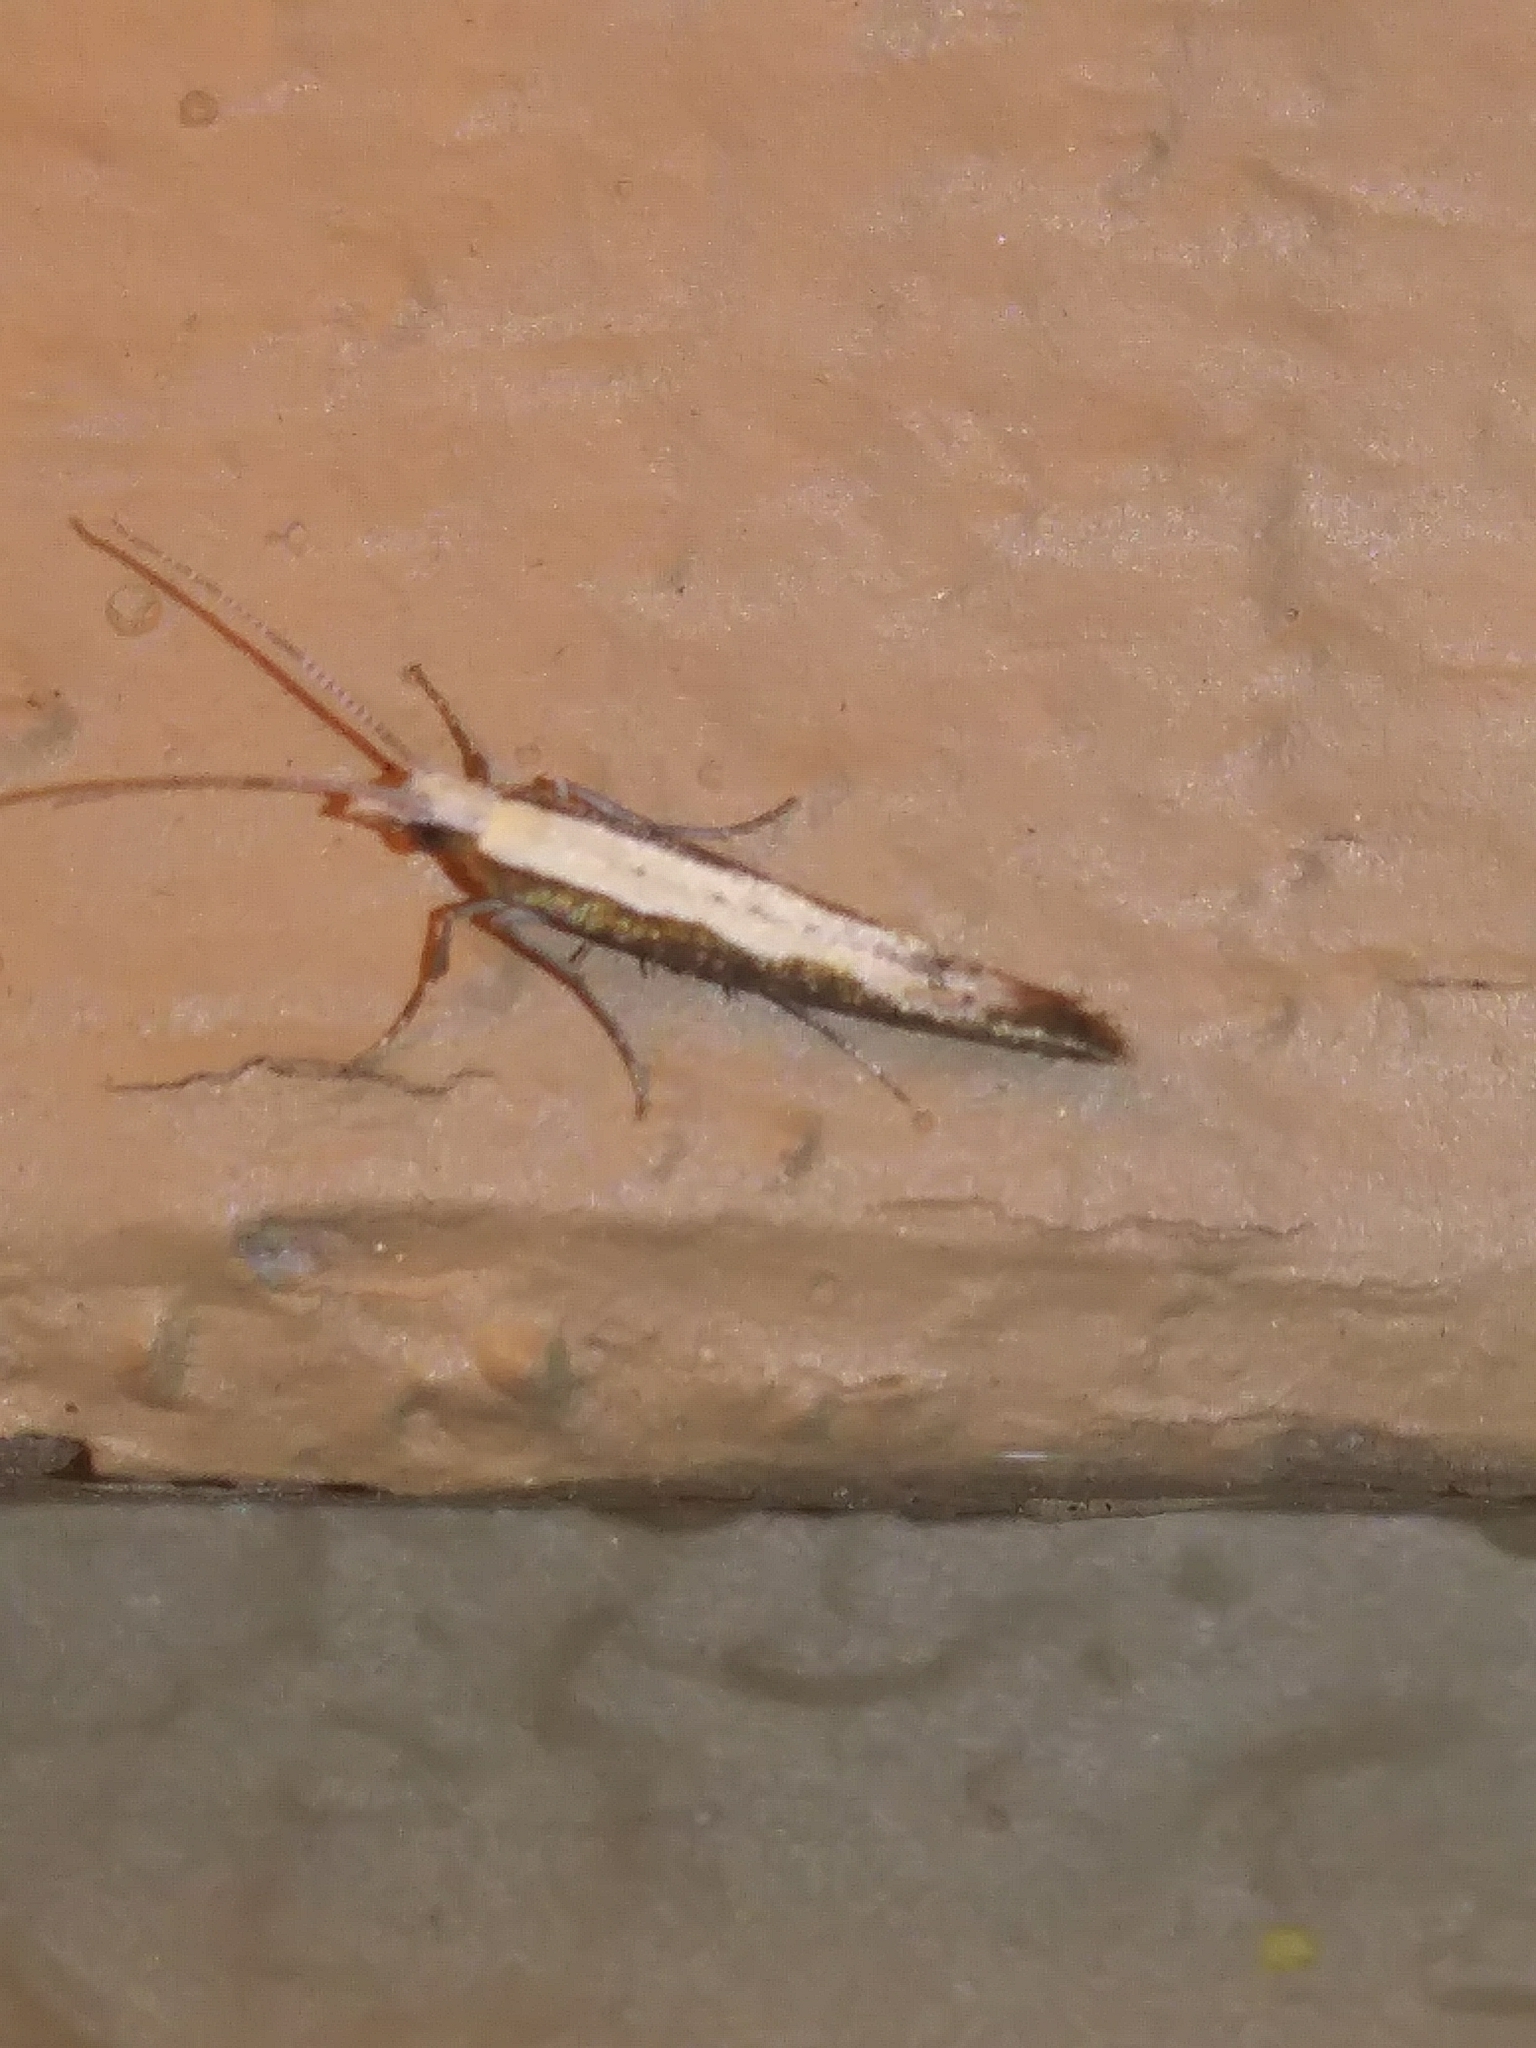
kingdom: Animalia
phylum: Arthropoda
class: Insecta
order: Lepidoptera
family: Plutellidae
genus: Plutella
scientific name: Plutella xylostella
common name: Diamond-back moth
